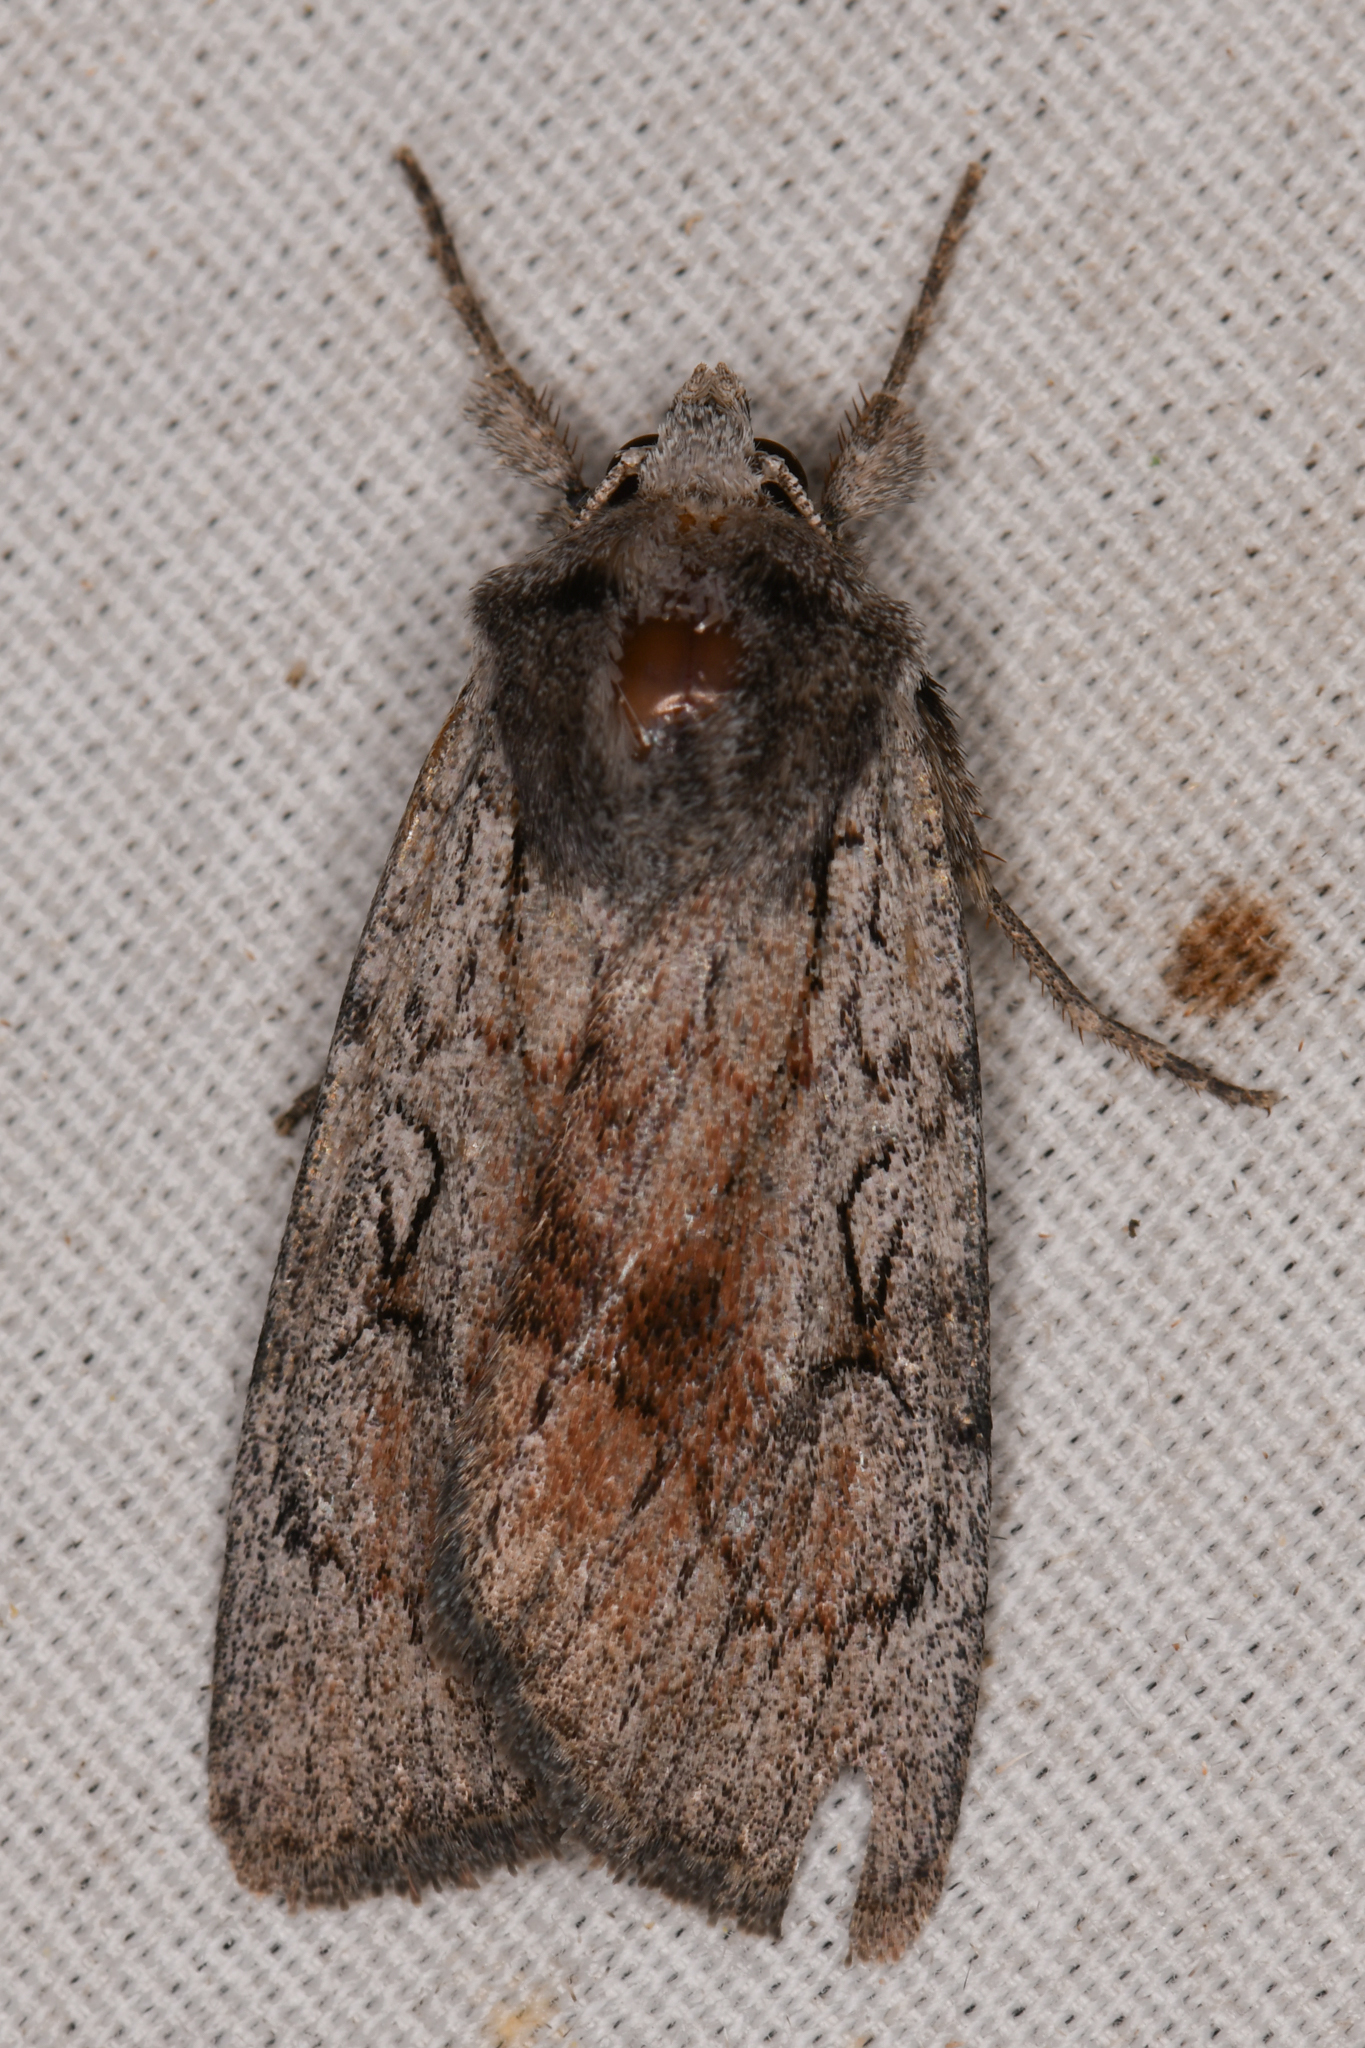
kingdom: Animalia
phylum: Arthropoda
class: Insecta
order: Lepidoptera
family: Noctuidae
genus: Setagrotis
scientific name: Setagrotis pallidicollis
